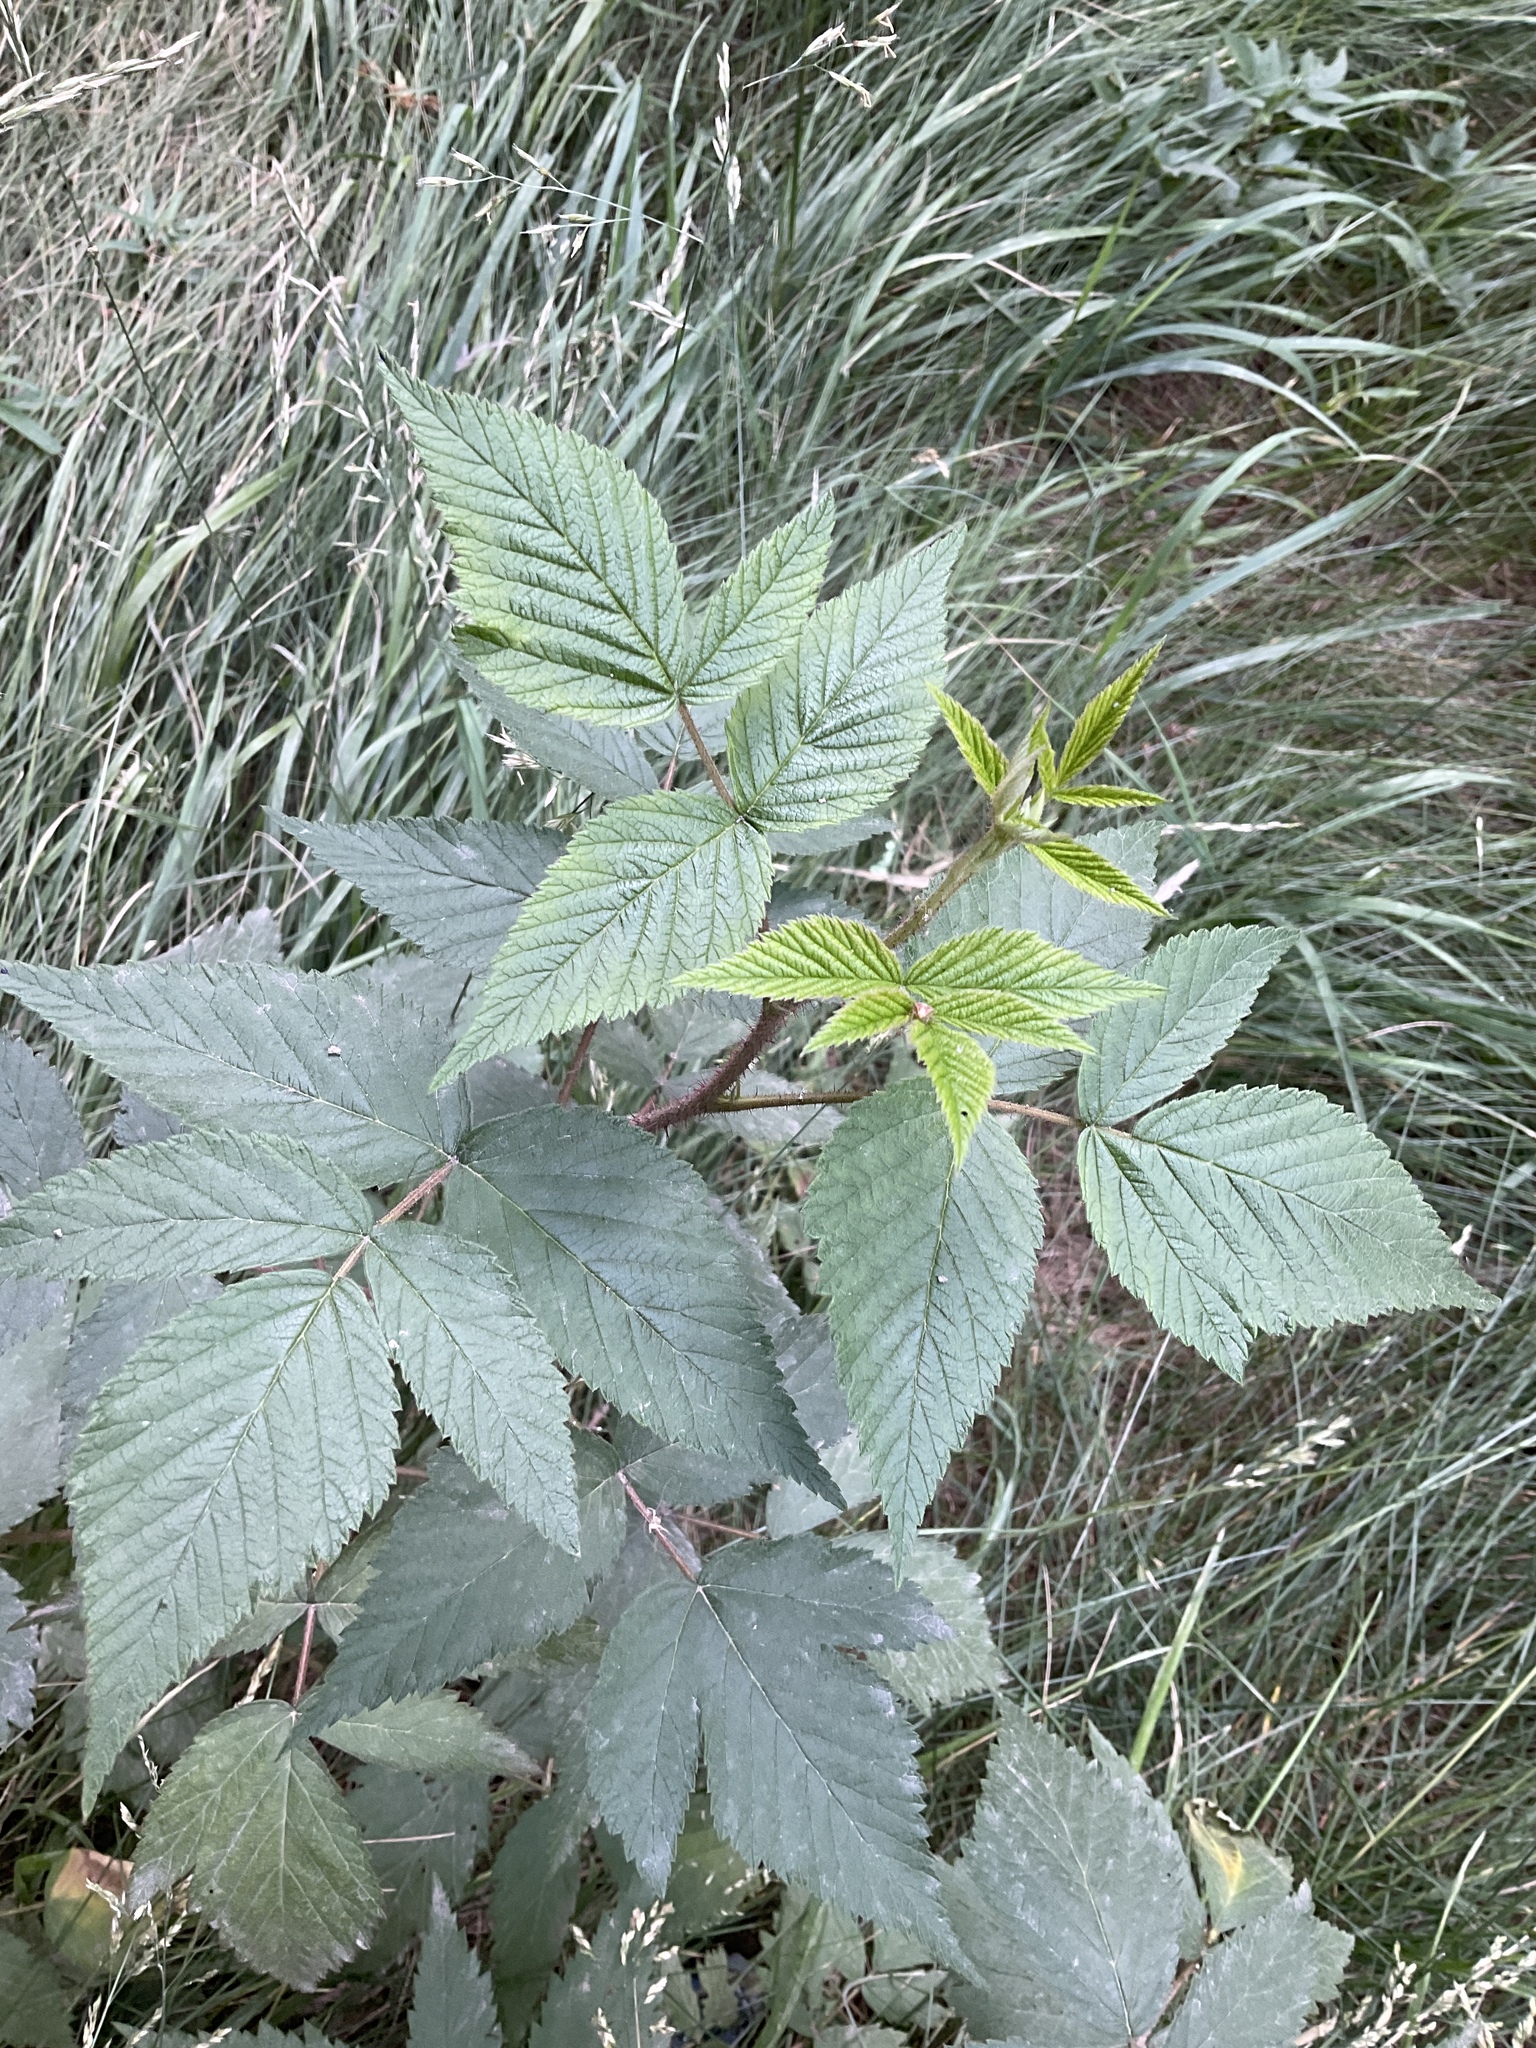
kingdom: Plantae
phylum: Tracheophyta
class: Magnoliopsida
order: Rosales
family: Rosaceae
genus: Rubus
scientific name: Rubus idaeus
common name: Raspberry
